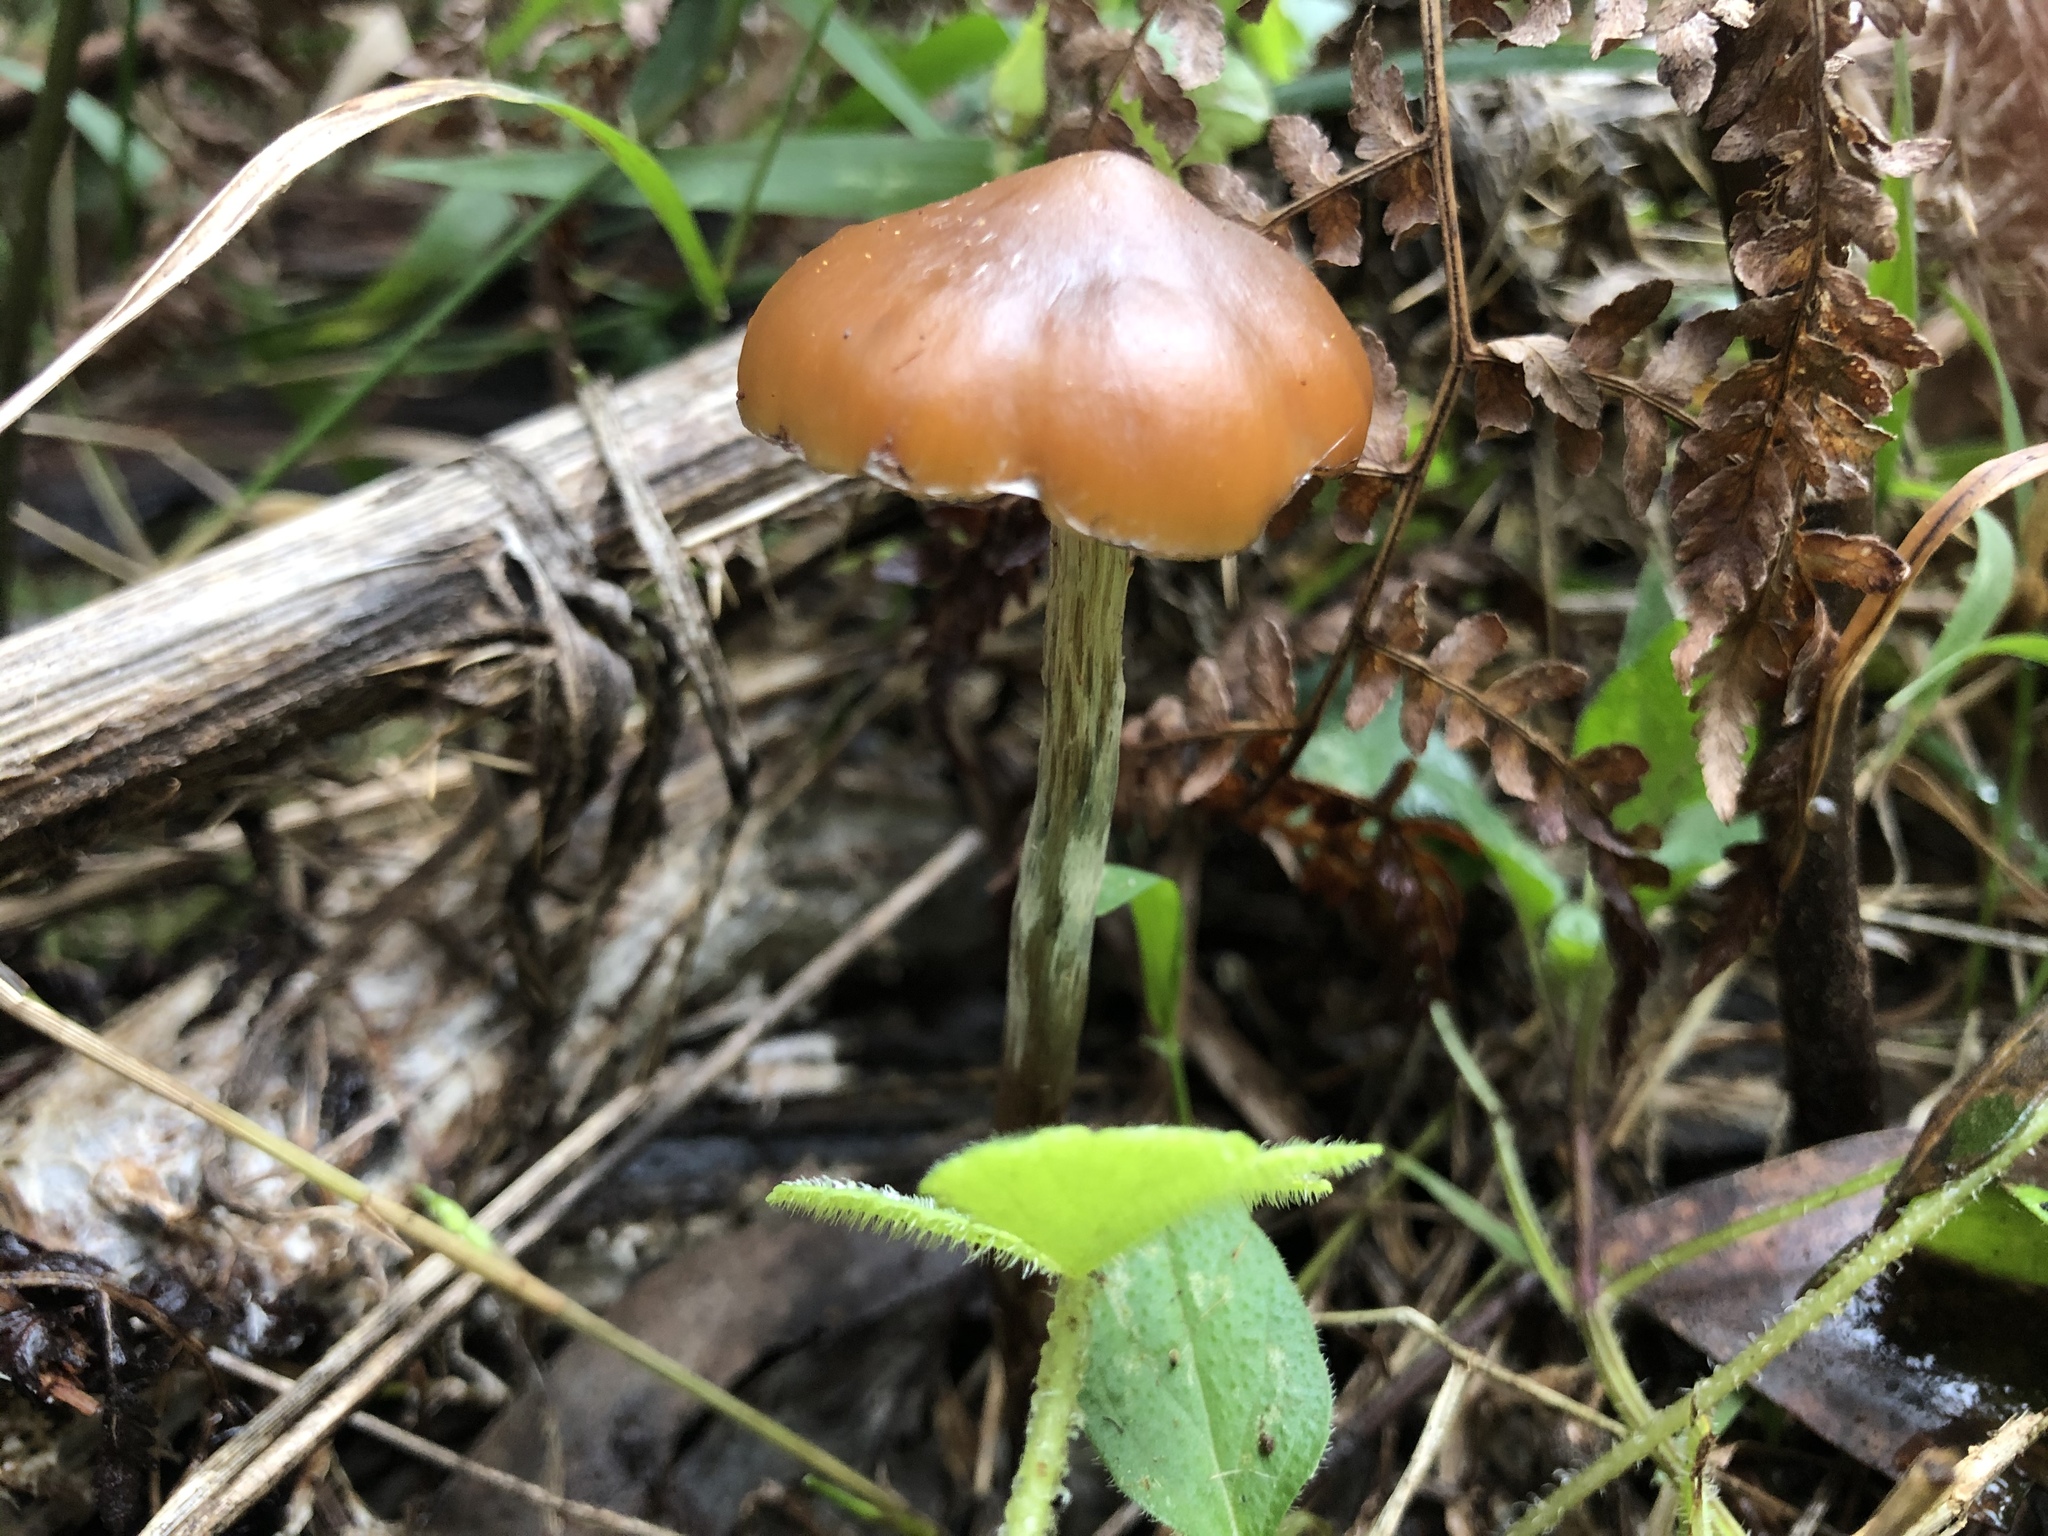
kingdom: Fungi
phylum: Basidiomycota
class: Agaricomycetes
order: Agaricales
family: Hymenogastraceae
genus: Psilocybe
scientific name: Psilocybe subaeruginosa
